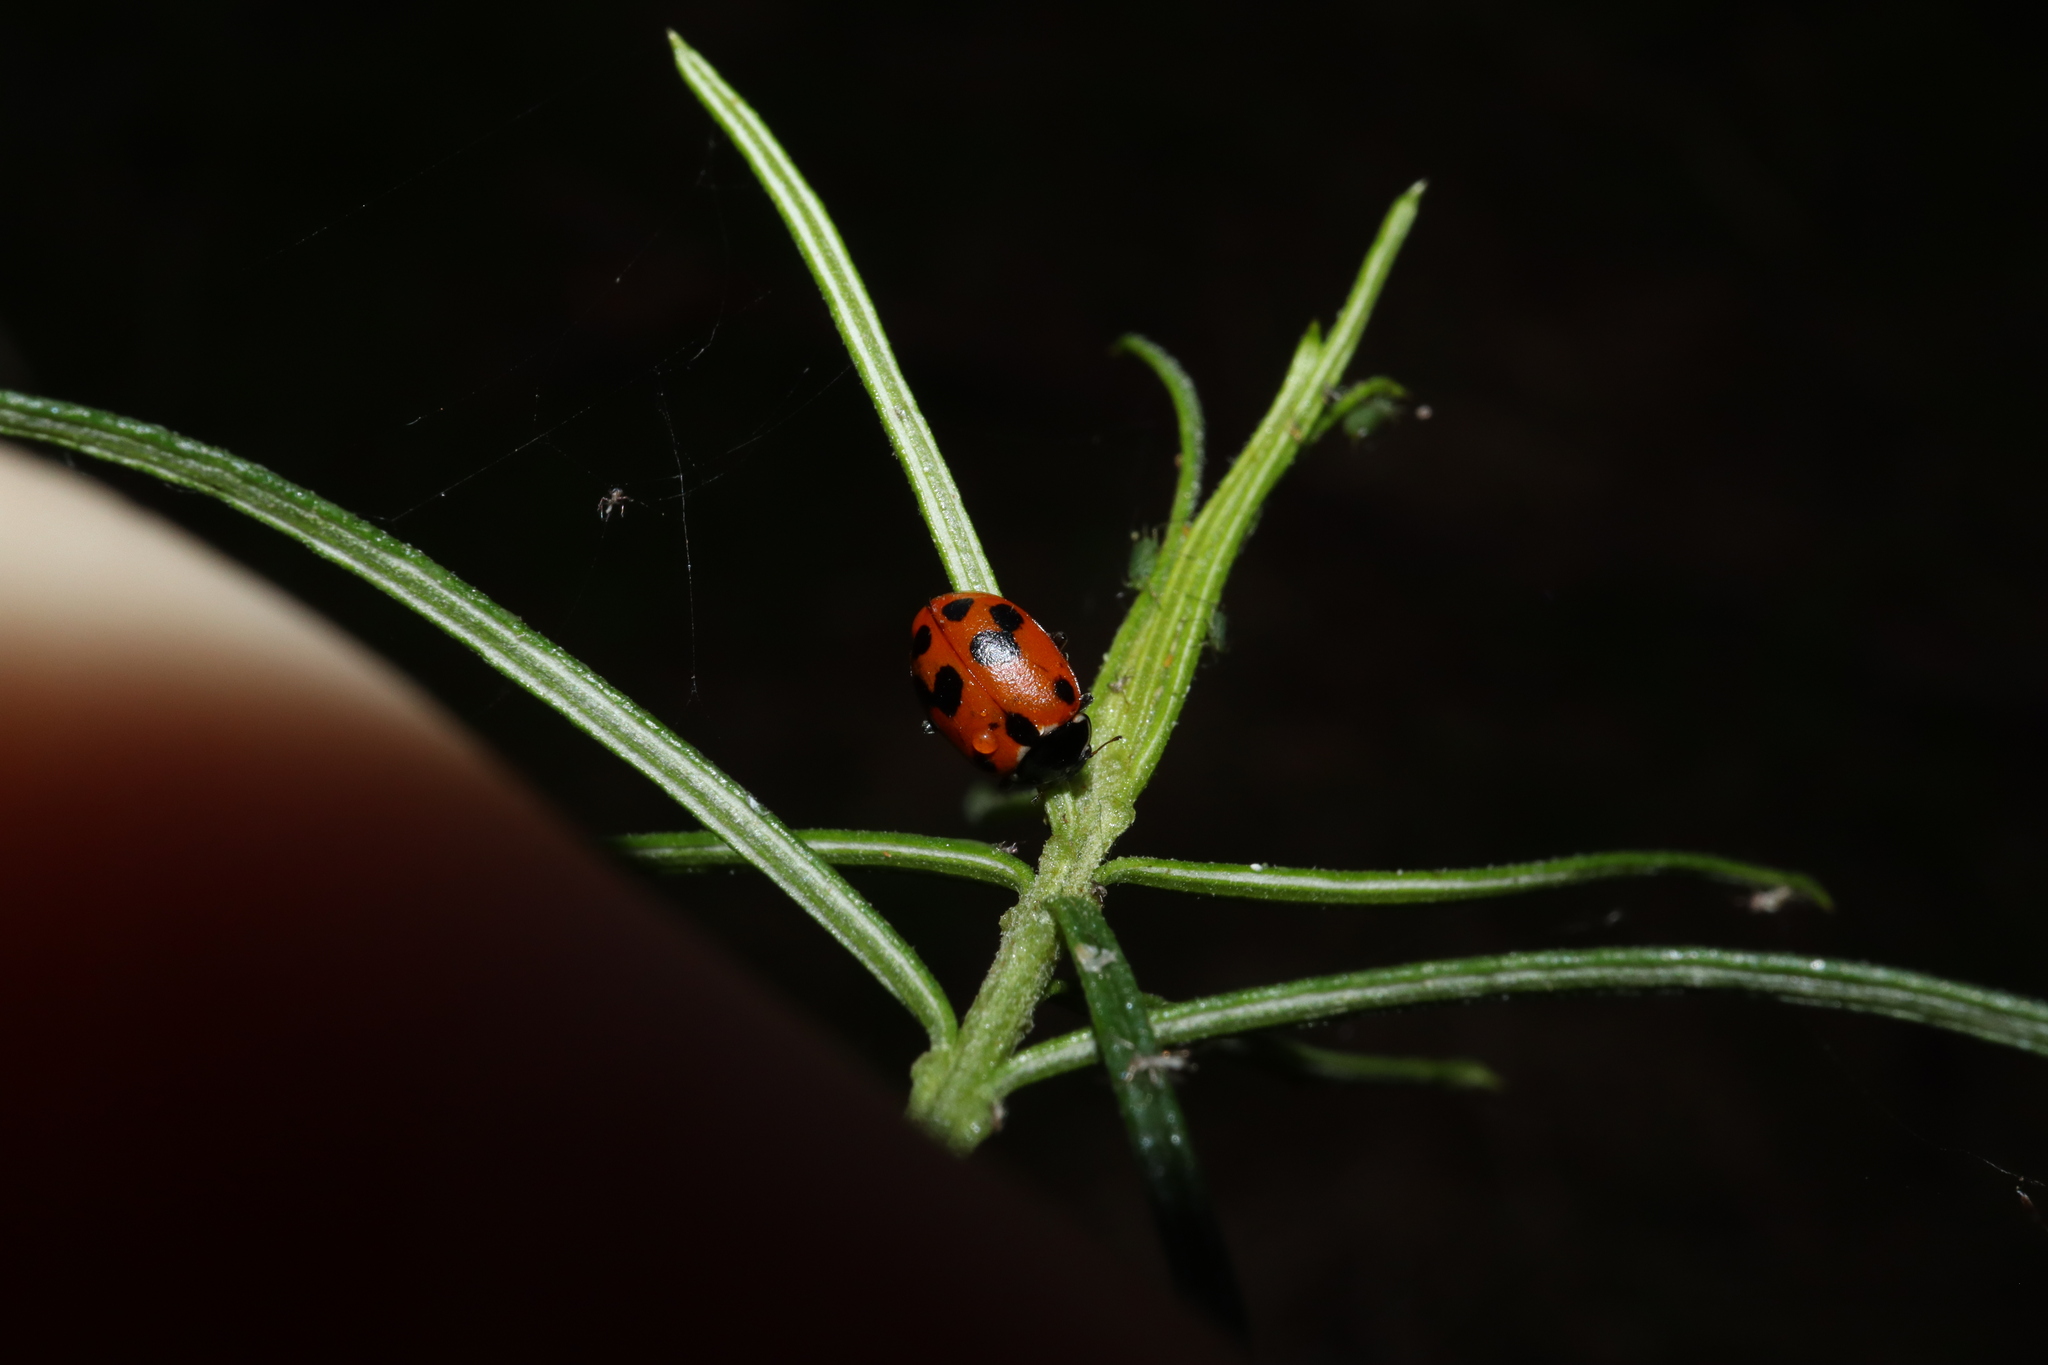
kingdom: Animalia
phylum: Arthropoda
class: Insecta
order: Coleoptera
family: Coccinellidae
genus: Hippodamia
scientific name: Hippodamia variegata
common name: Ladybird beetle
